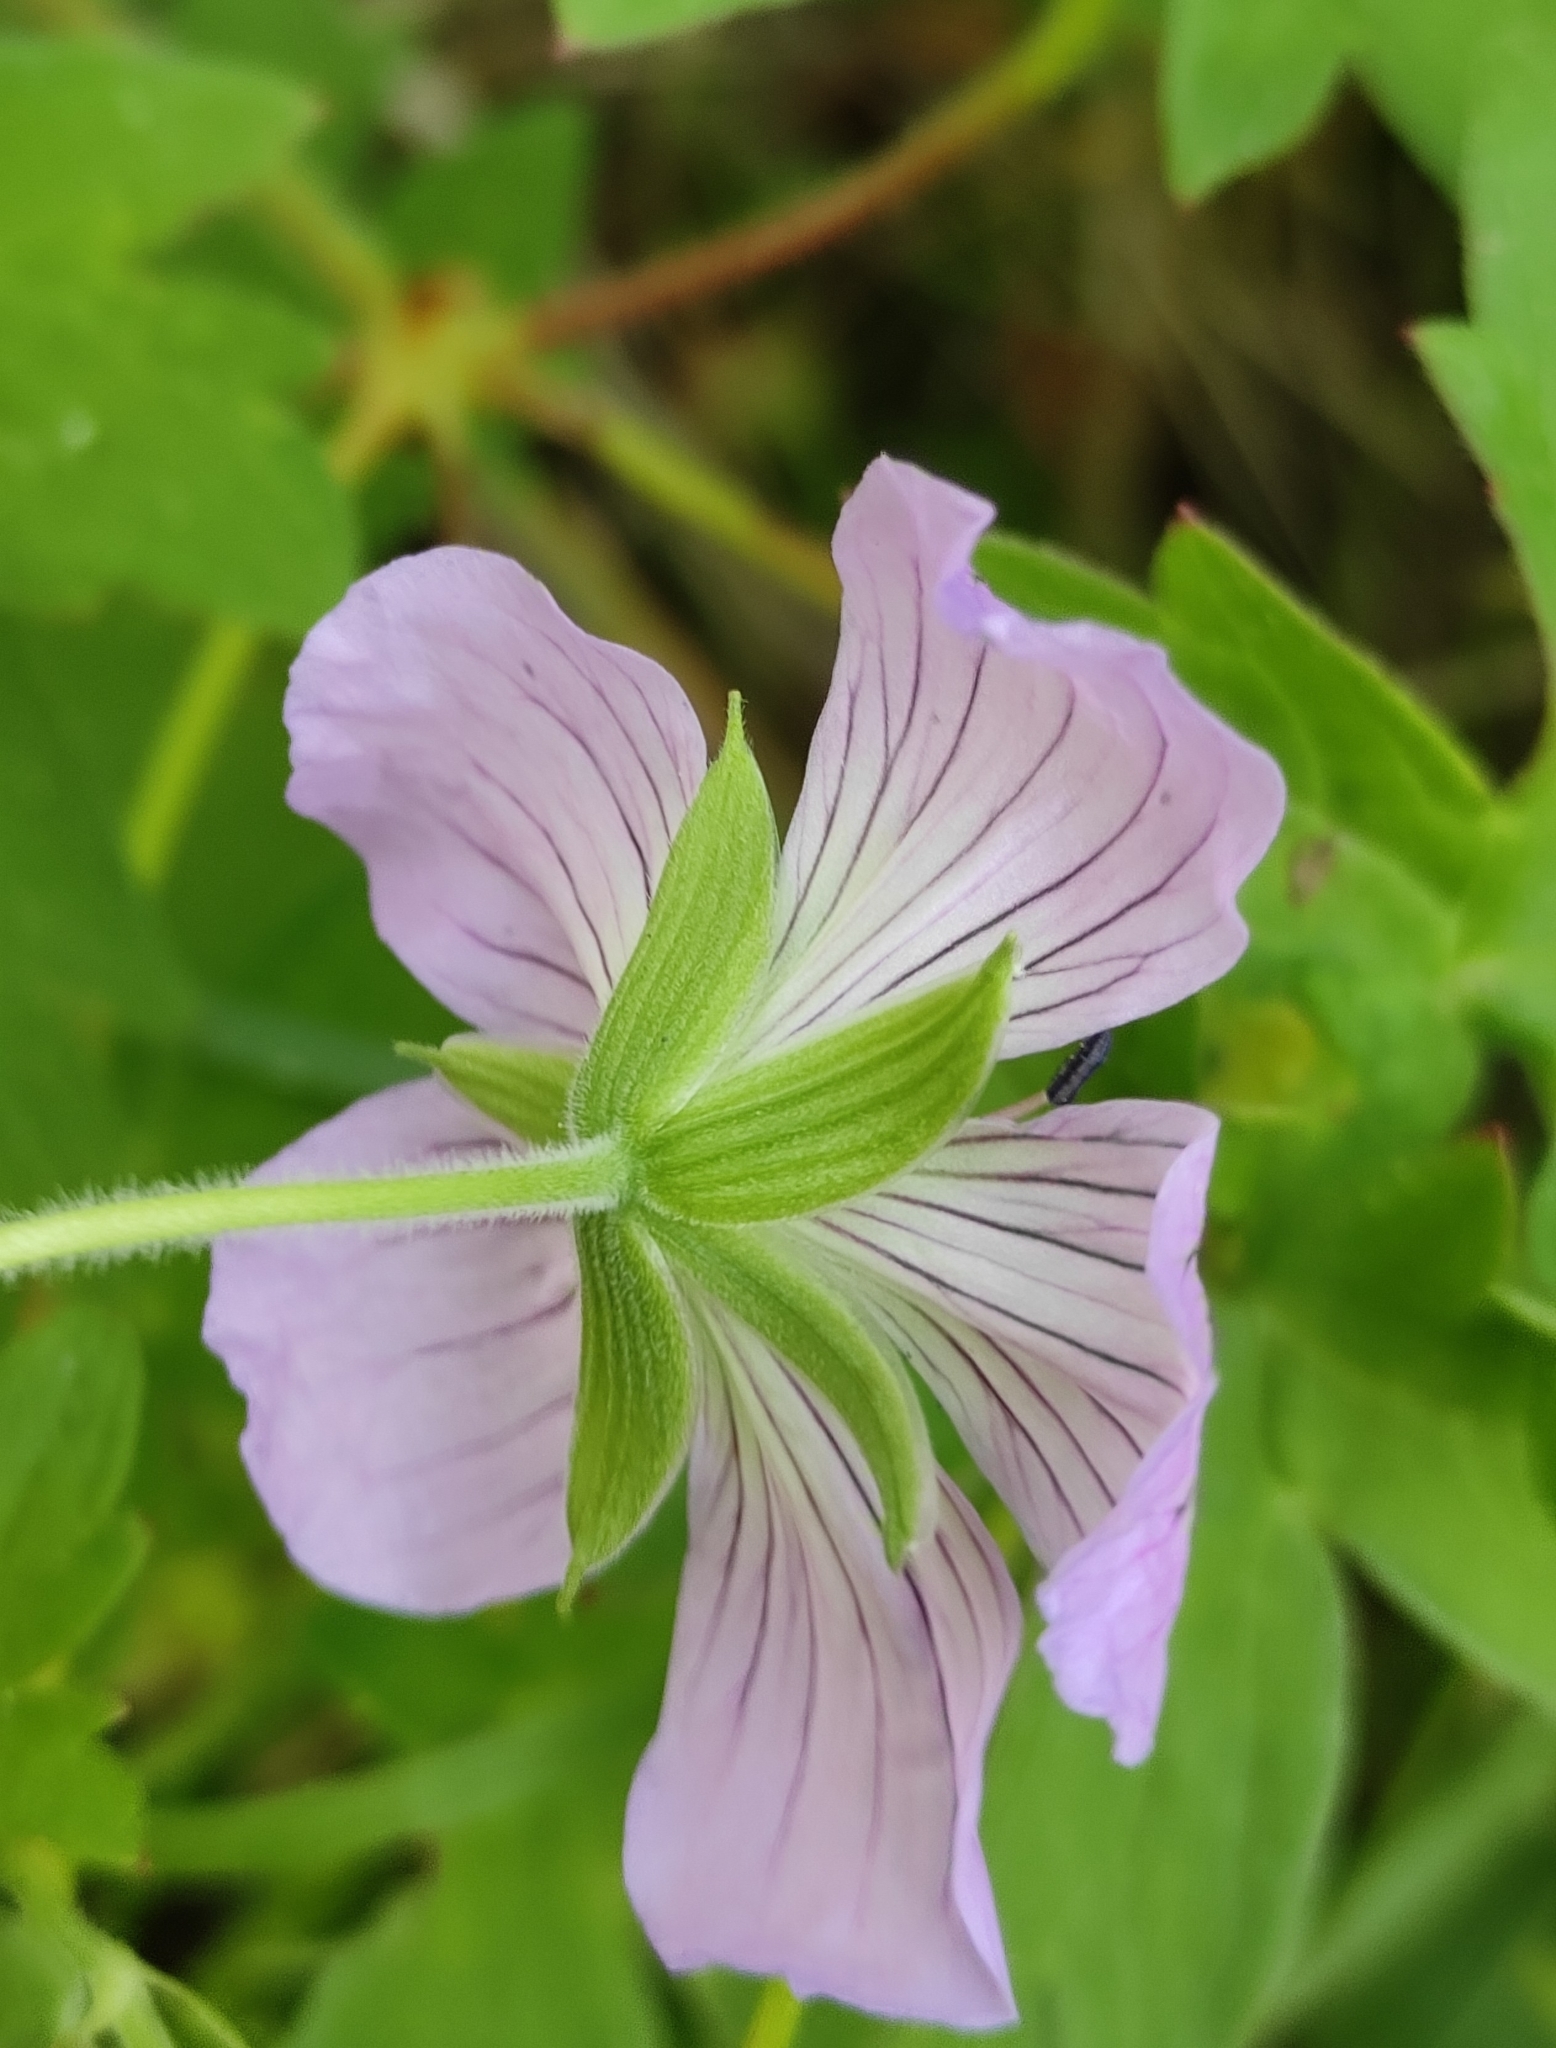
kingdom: Plantae
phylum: Tracheophyta
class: Magnoliopsida
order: Geraniales
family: Geraniaceae
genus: Geranium
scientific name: Geranium wlassovianum
